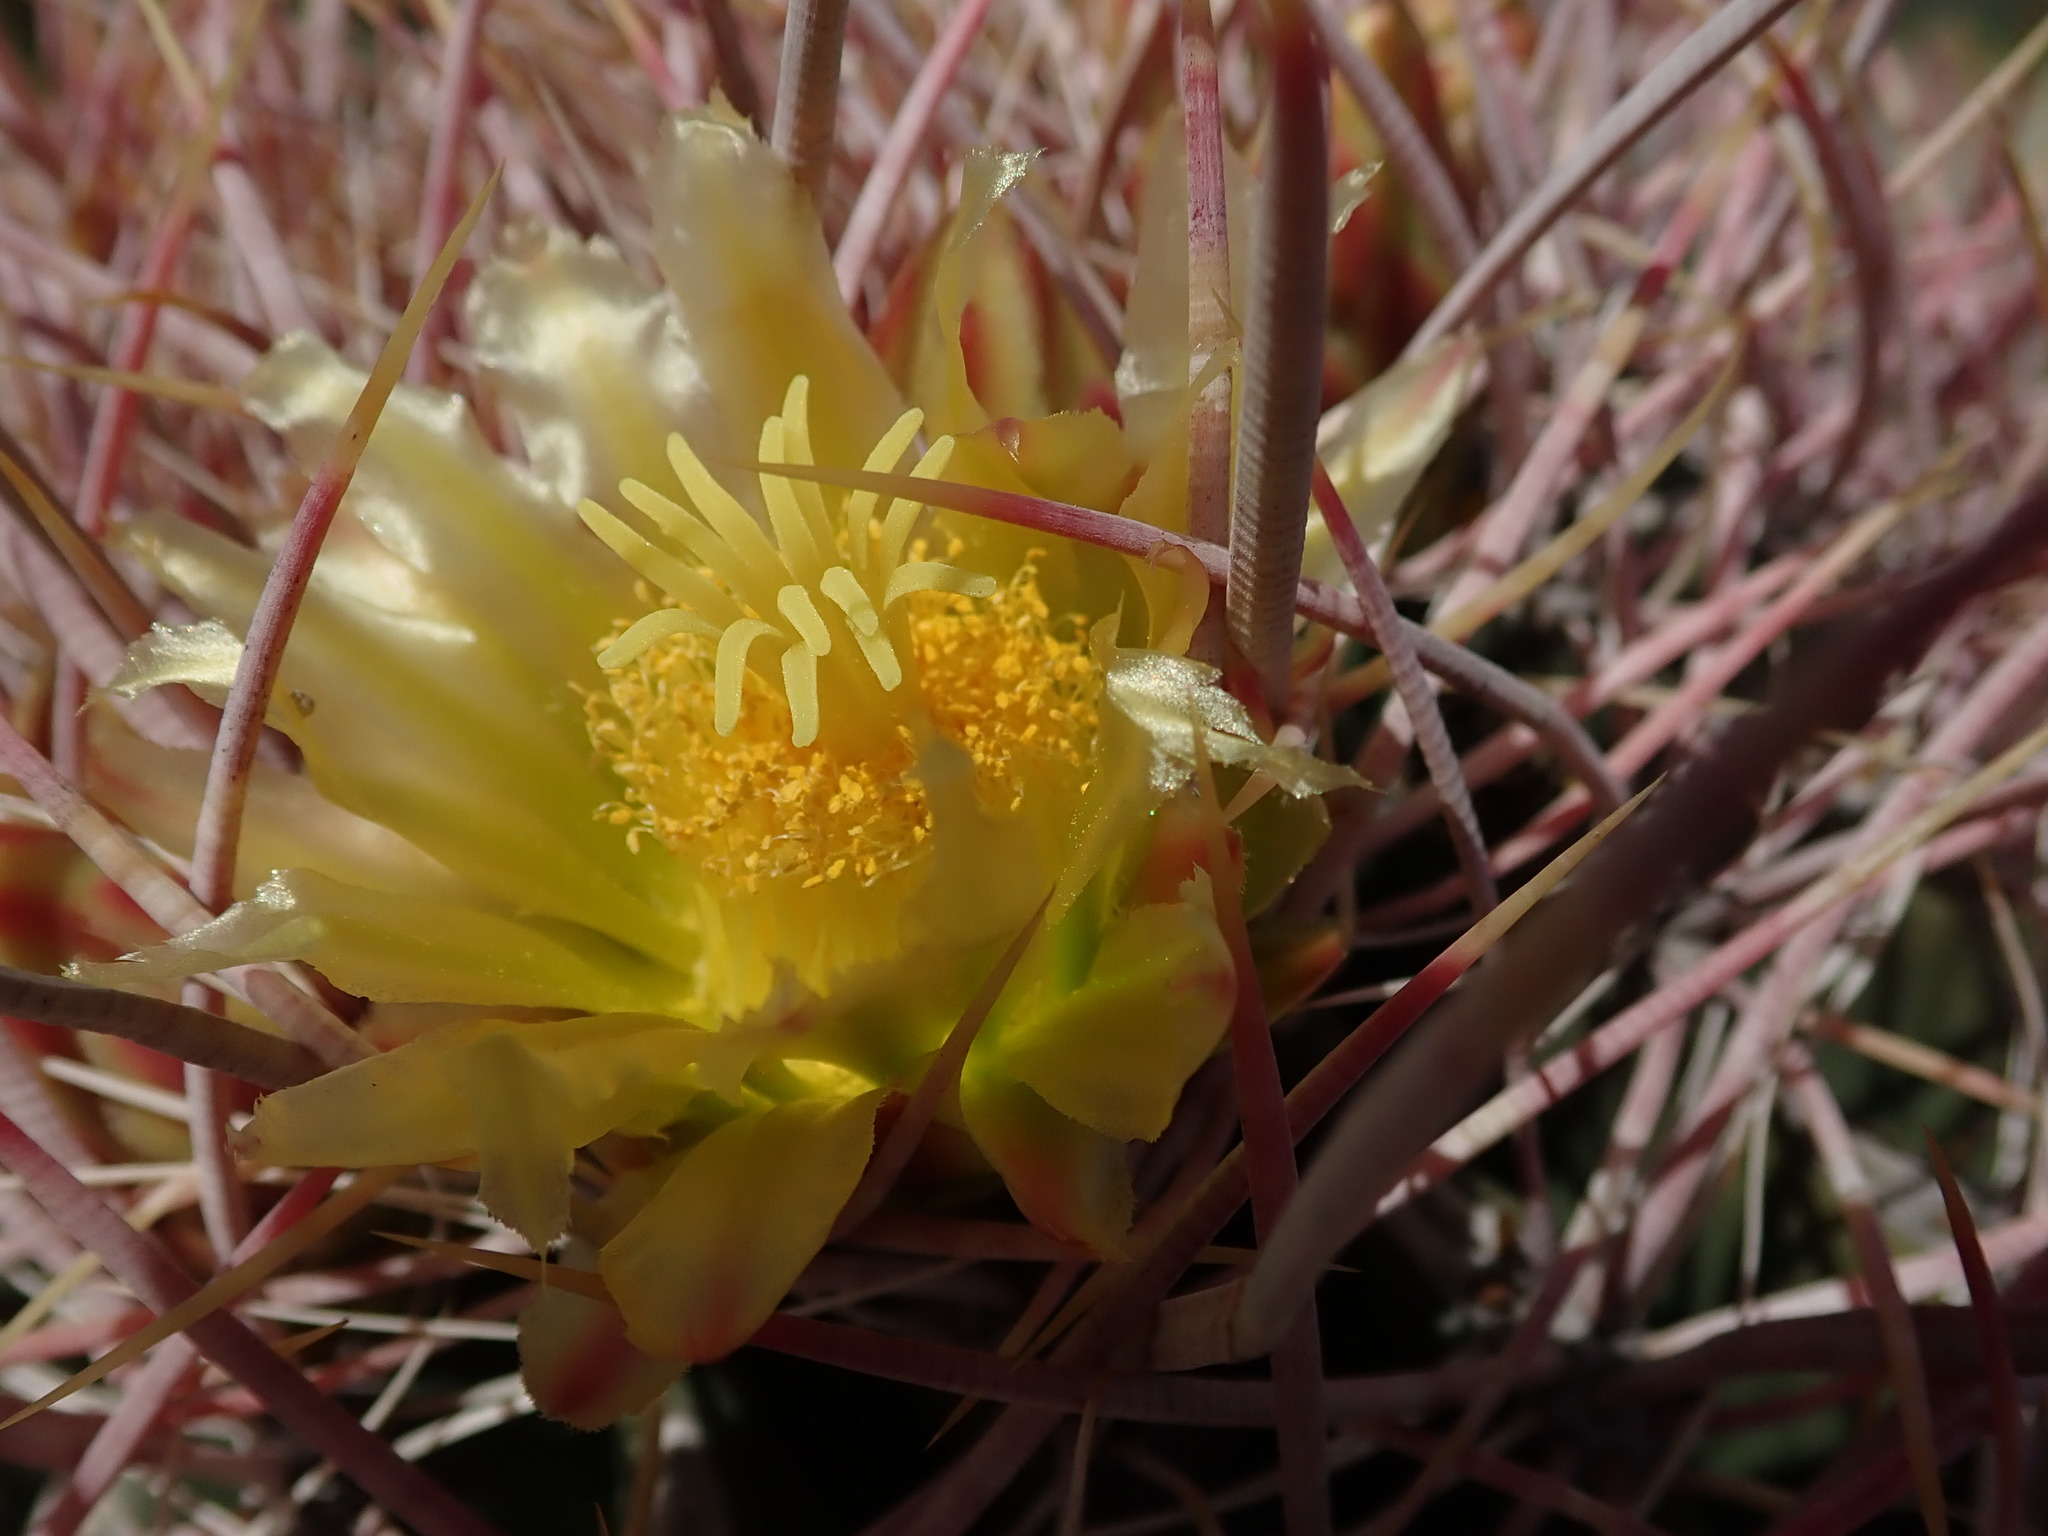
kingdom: Plantae
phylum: Tracheophyta
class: Magnoliopsida
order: Caryophyllales
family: Cactaceae
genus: Ferocactus
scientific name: Ferocactus cylindraceus
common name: California barrel cactus
